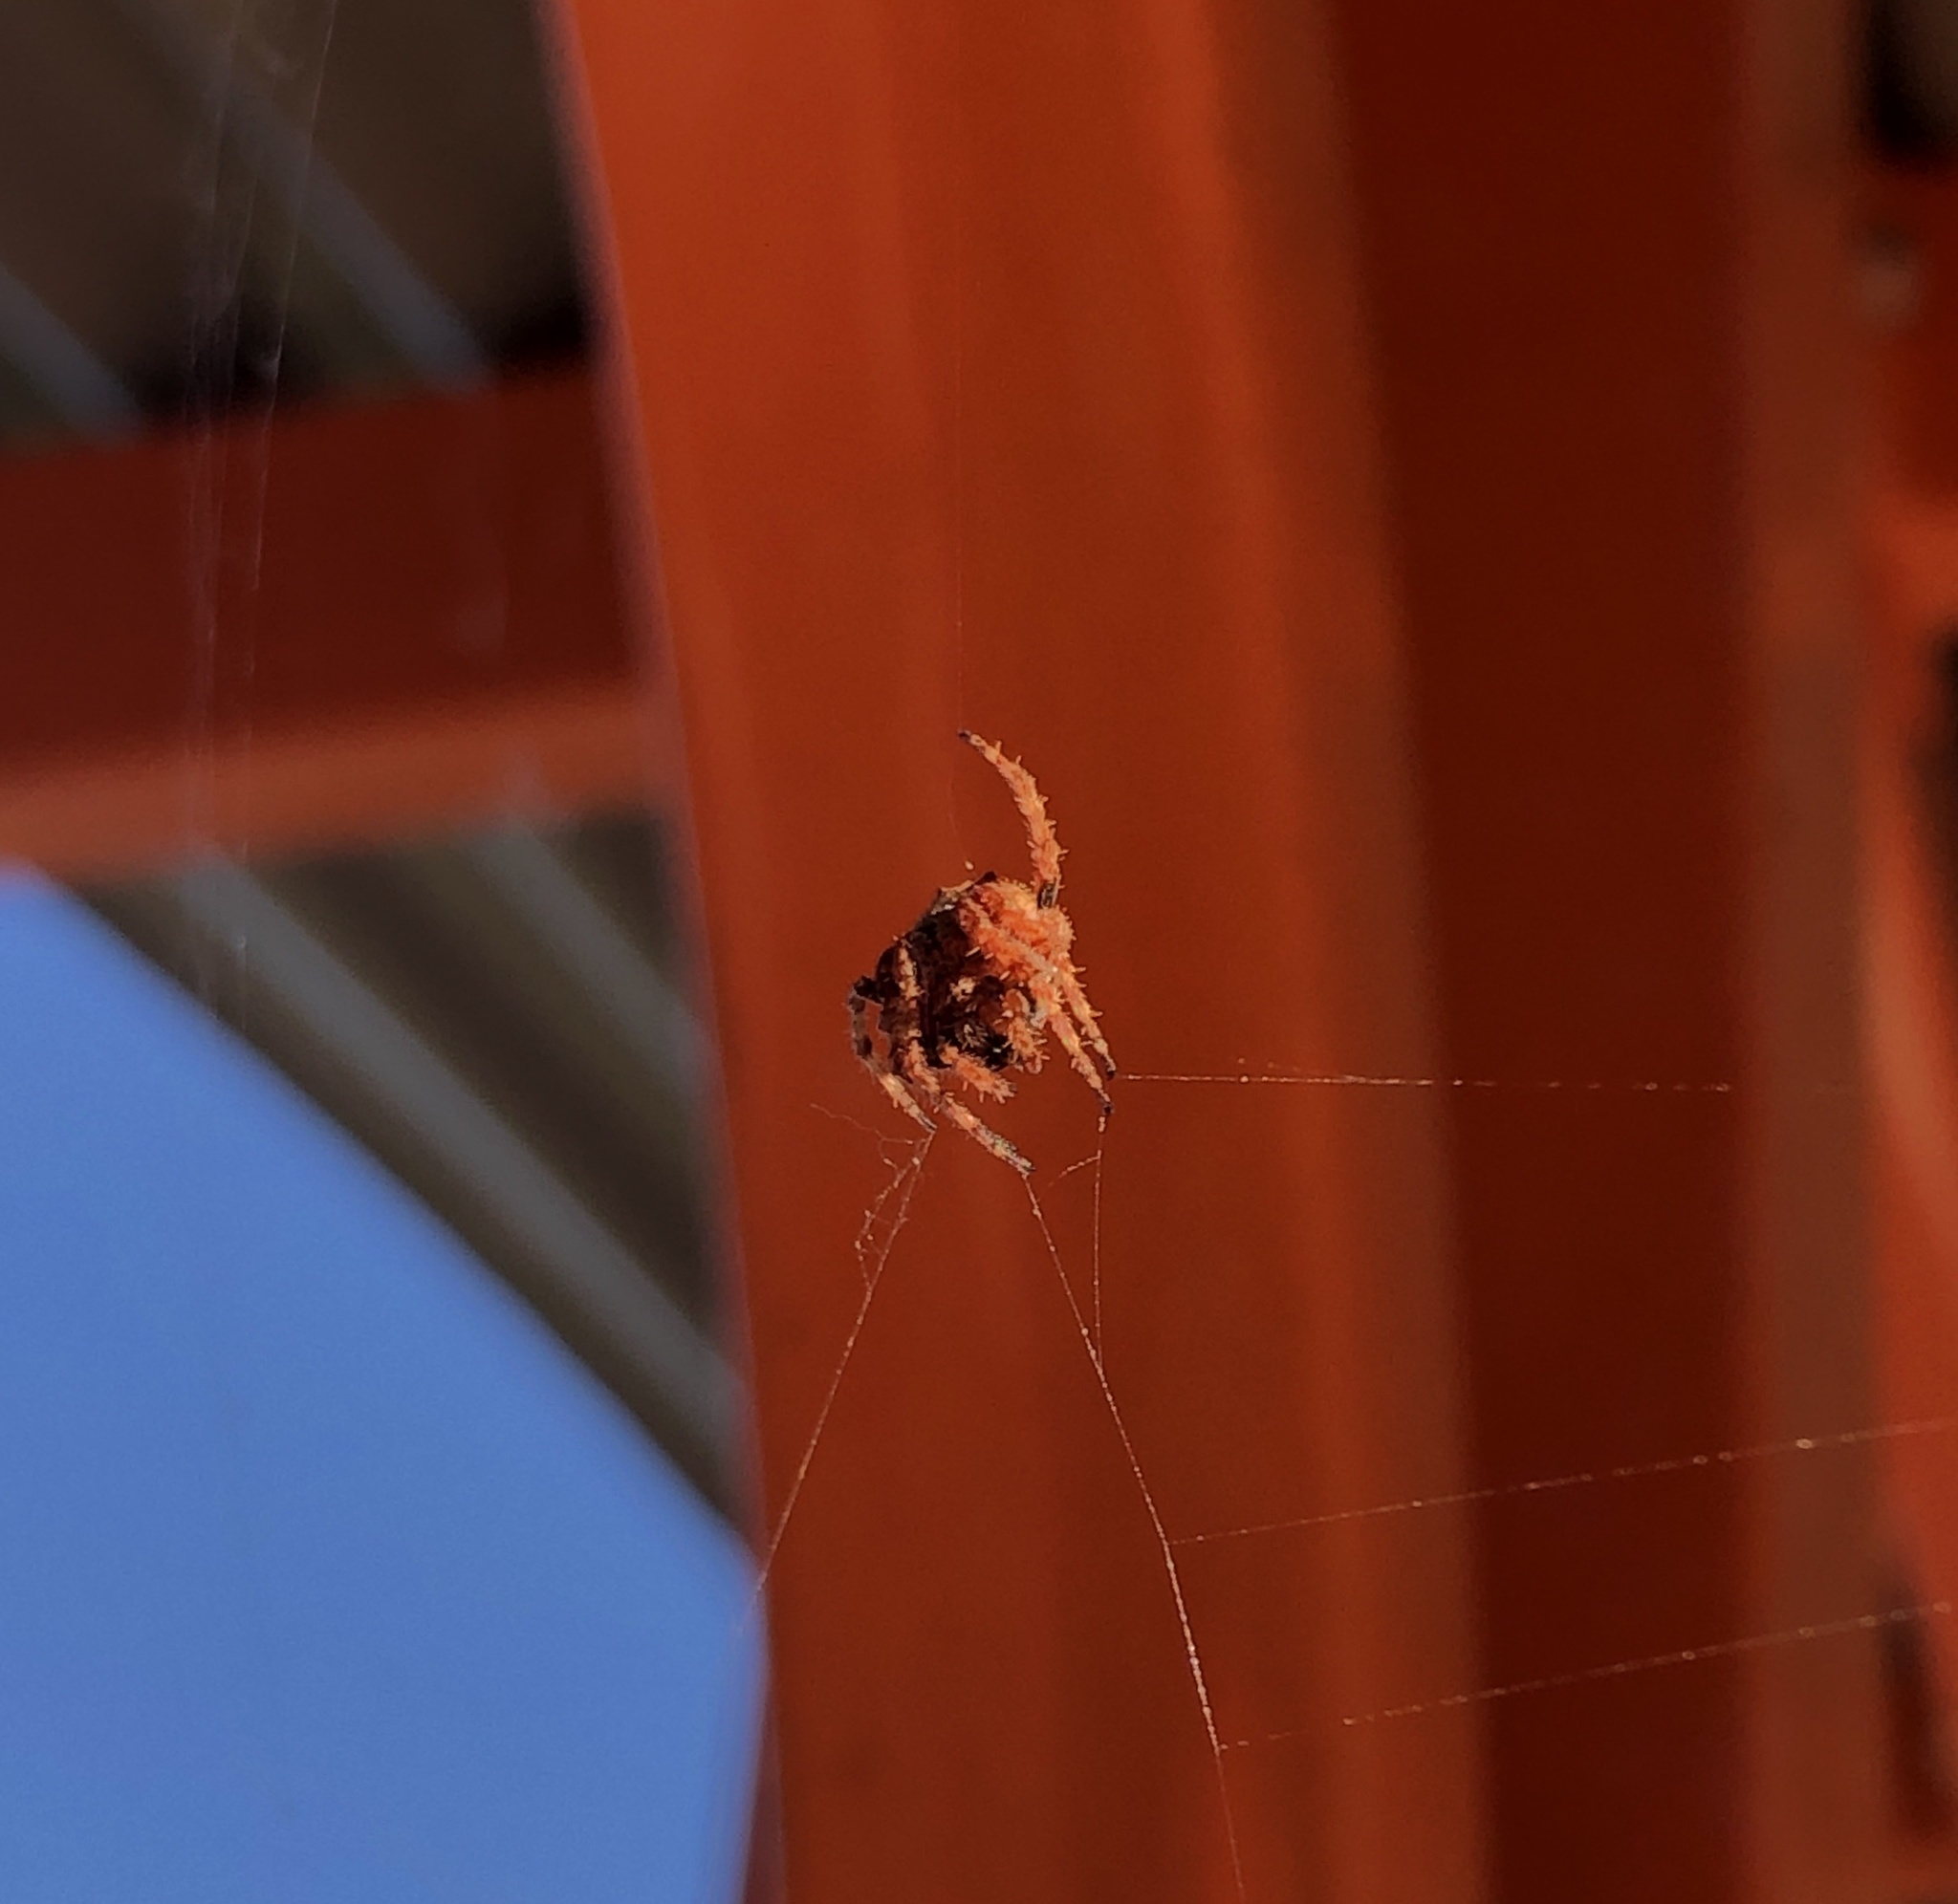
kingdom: Animalia
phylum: Arthropoda
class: Arachnida
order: Araneae
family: Araneidae
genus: Eriophora
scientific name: Eriophora pustulosa
